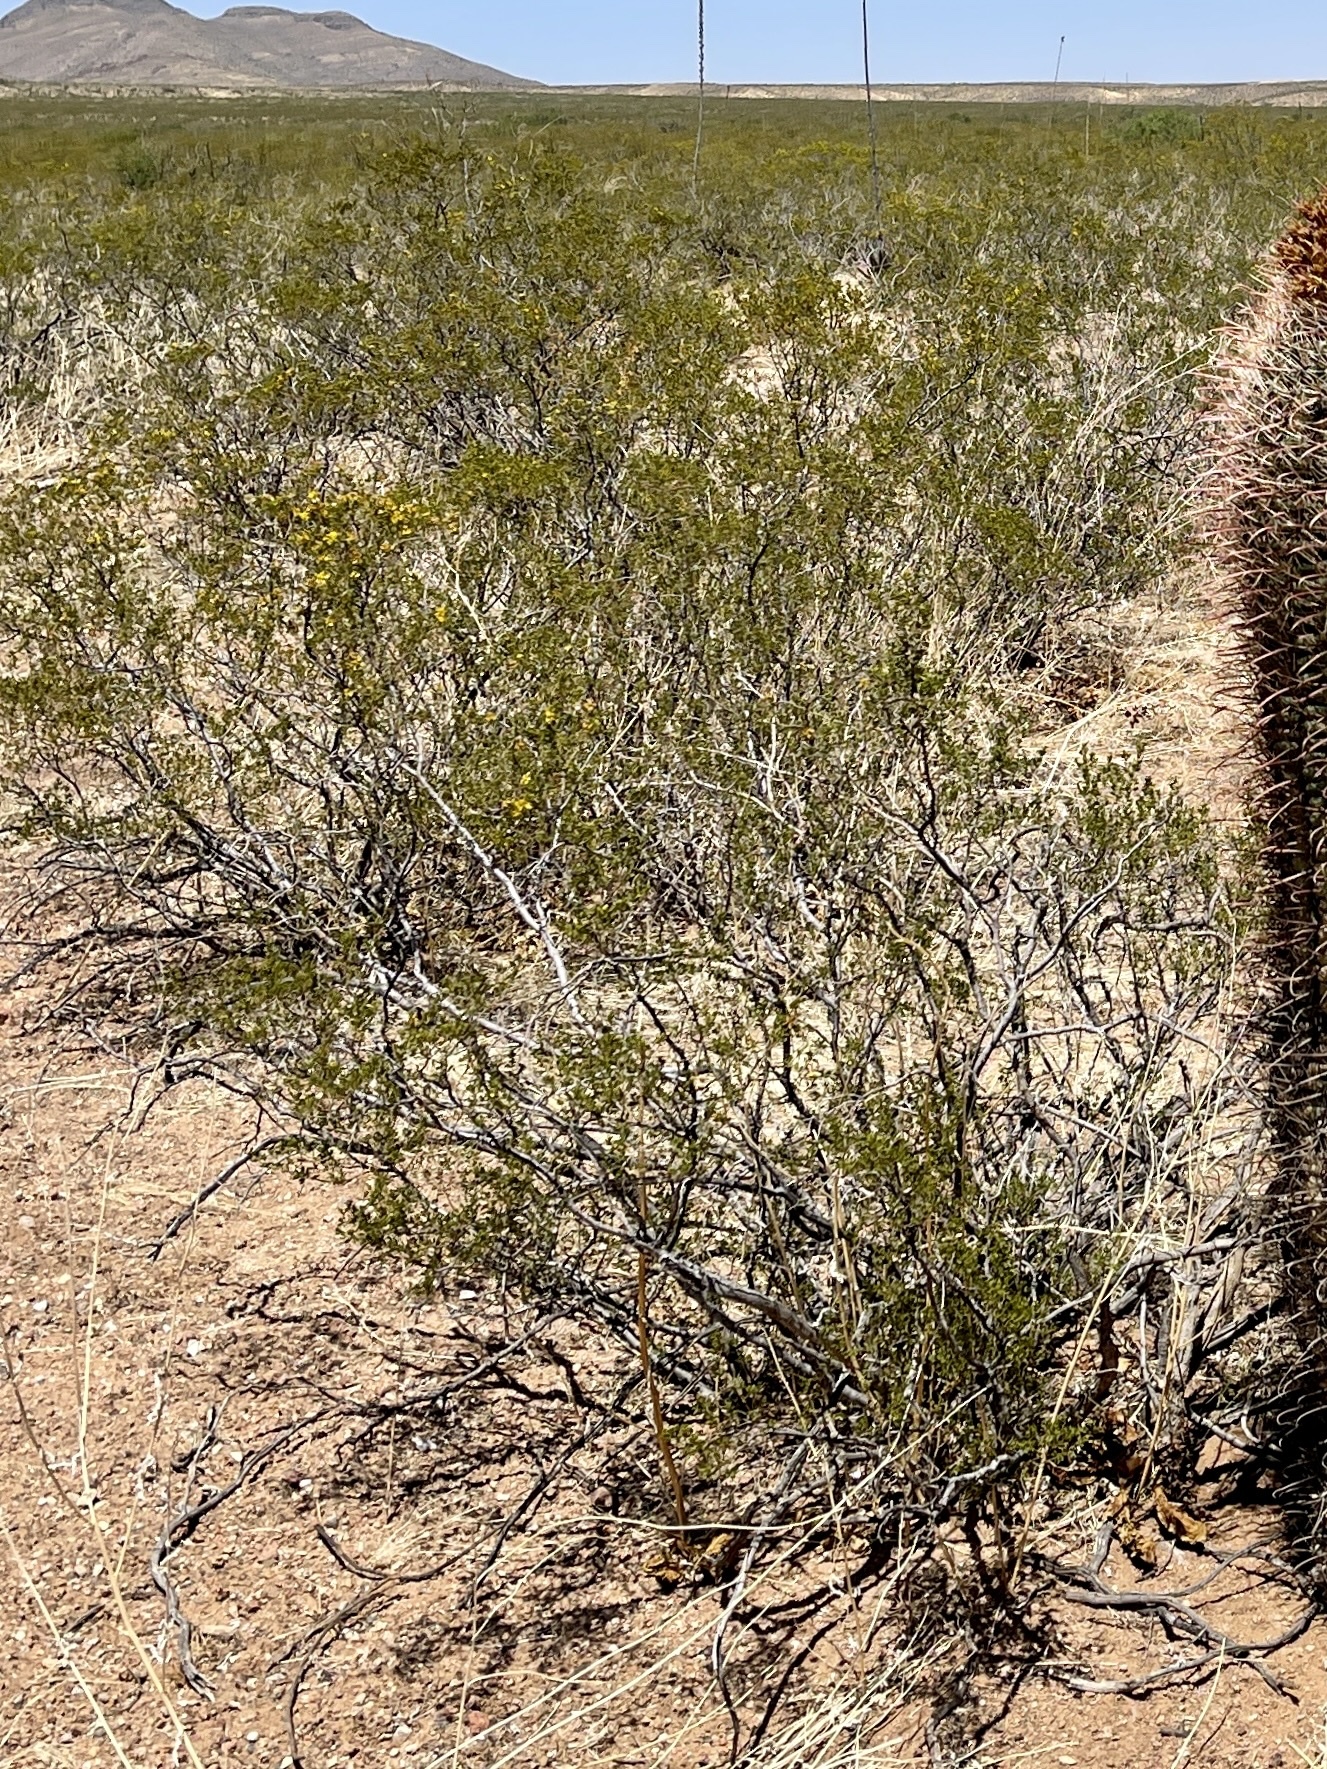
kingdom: Plantae
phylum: Tracheophyta
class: Magnoliopsida
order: Zygophyllales
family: Zygophyllaceae
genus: Larrea
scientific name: Larrea tridentata
